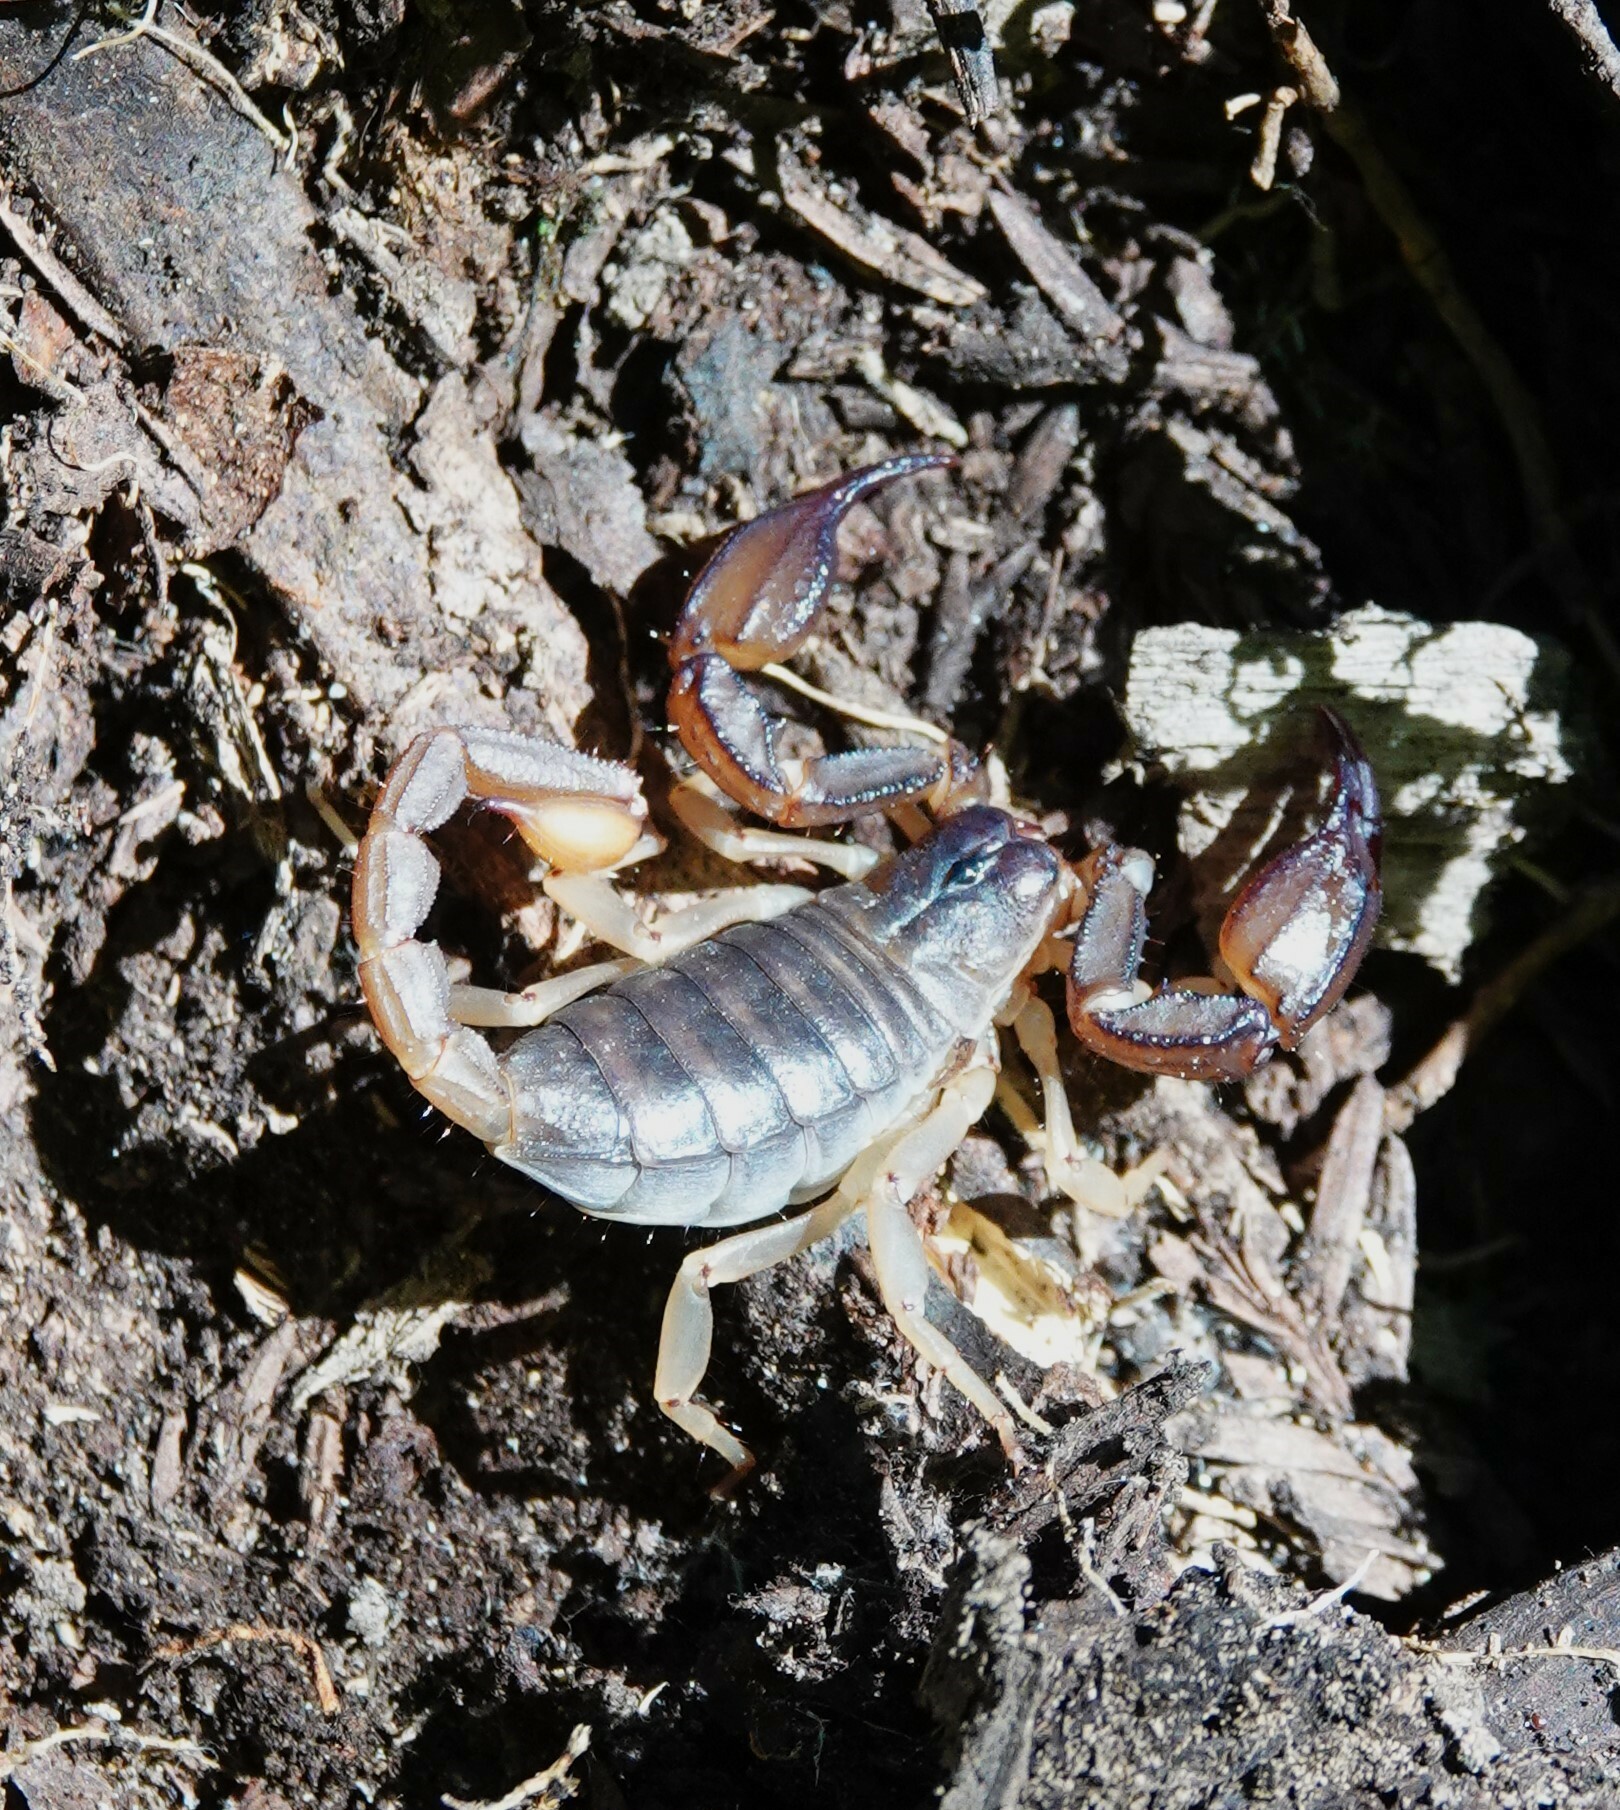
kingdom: Animalia
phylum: Arthropoda
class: Arachnida
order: Scorpiones
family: Chactidae
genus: Uroctonus
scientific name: Uroctonus mordax
